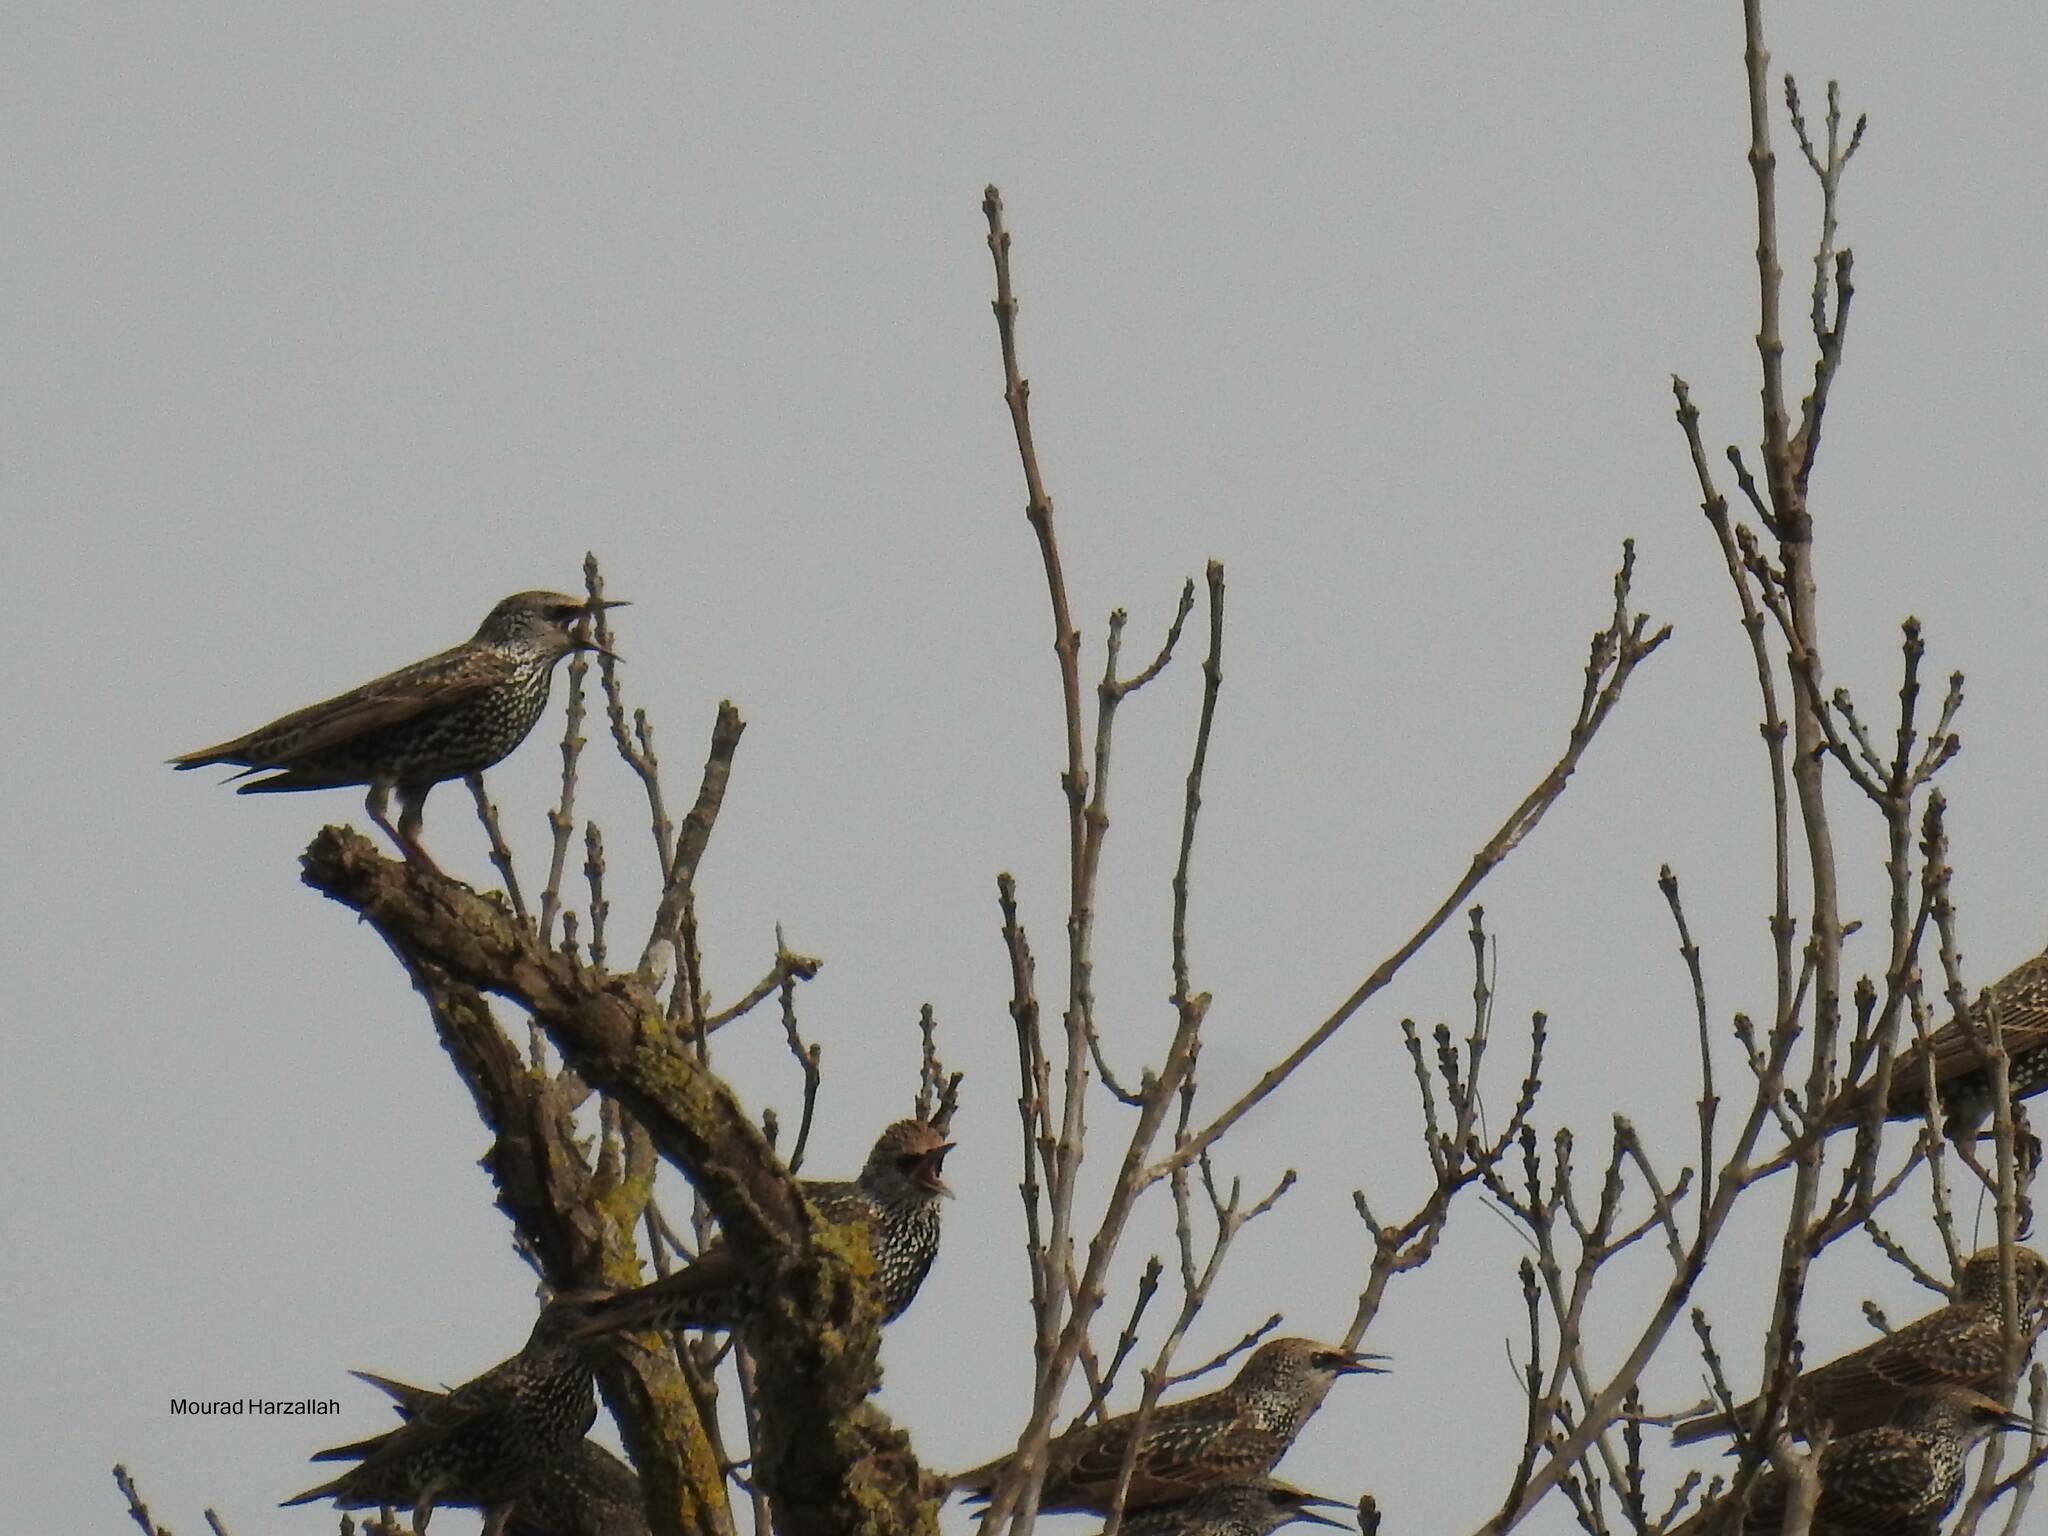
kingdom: Animalia
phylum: Chordata
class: Aves
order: Passeriformes
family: Sturnidae
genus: Sturnus
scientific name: Sturnus vulgaris
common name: Common starling
